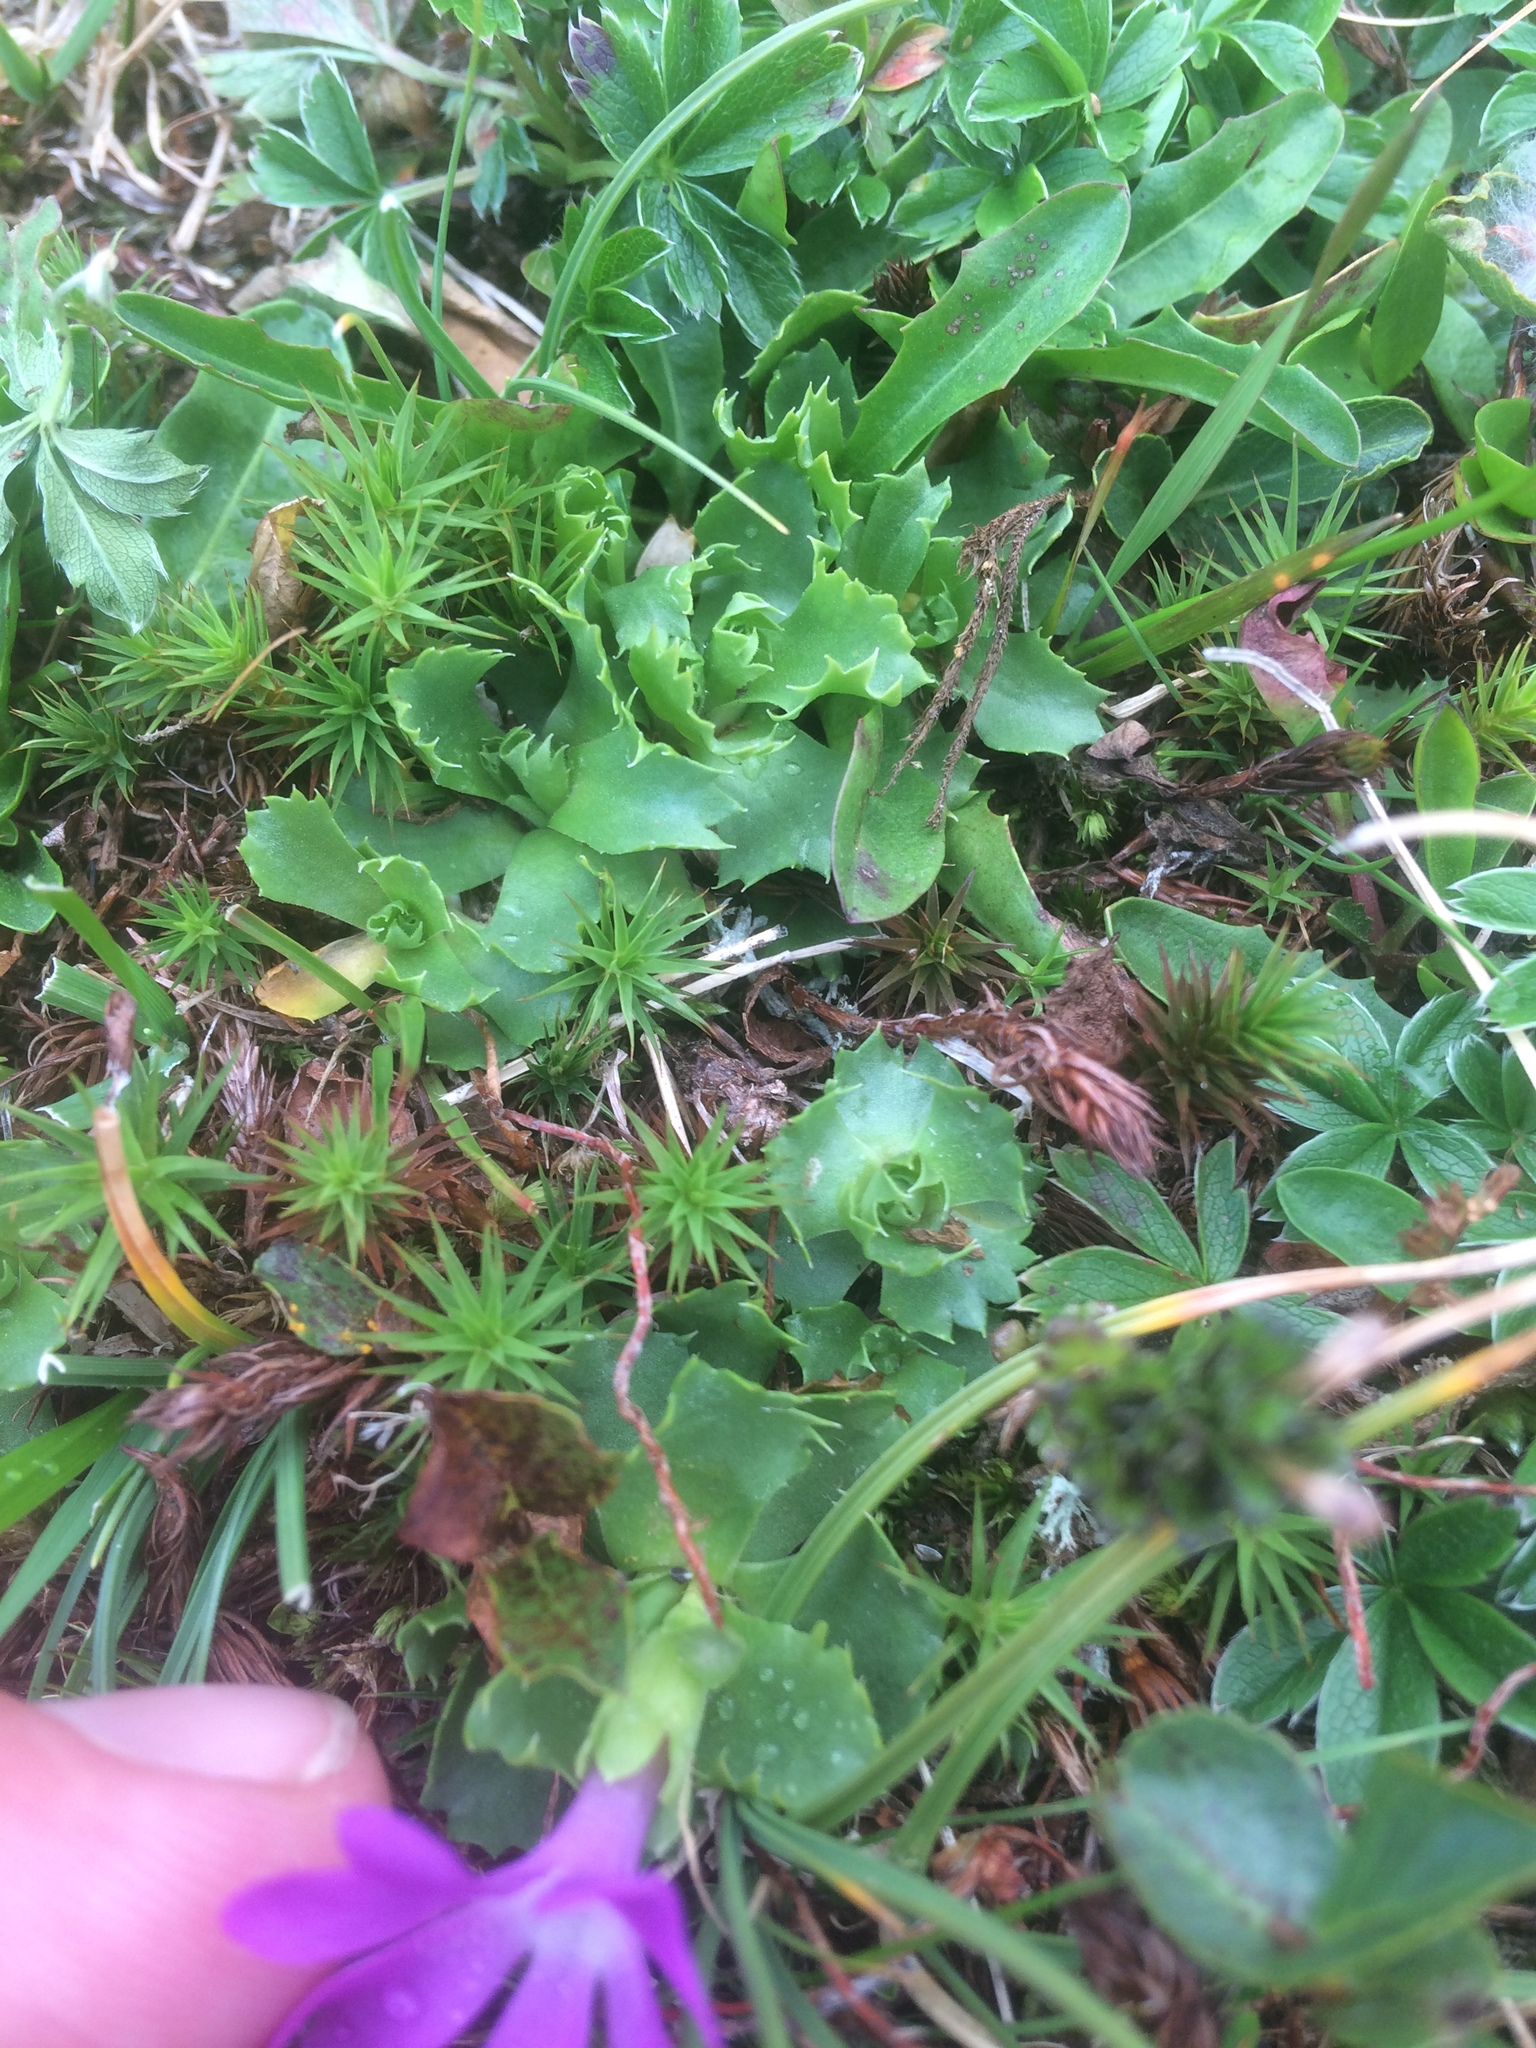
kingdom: Plantae
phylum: Tracheophyta
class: Magnoliopsida
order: Ericales
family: Primulaceae
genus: Primula
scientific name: Primula minima
